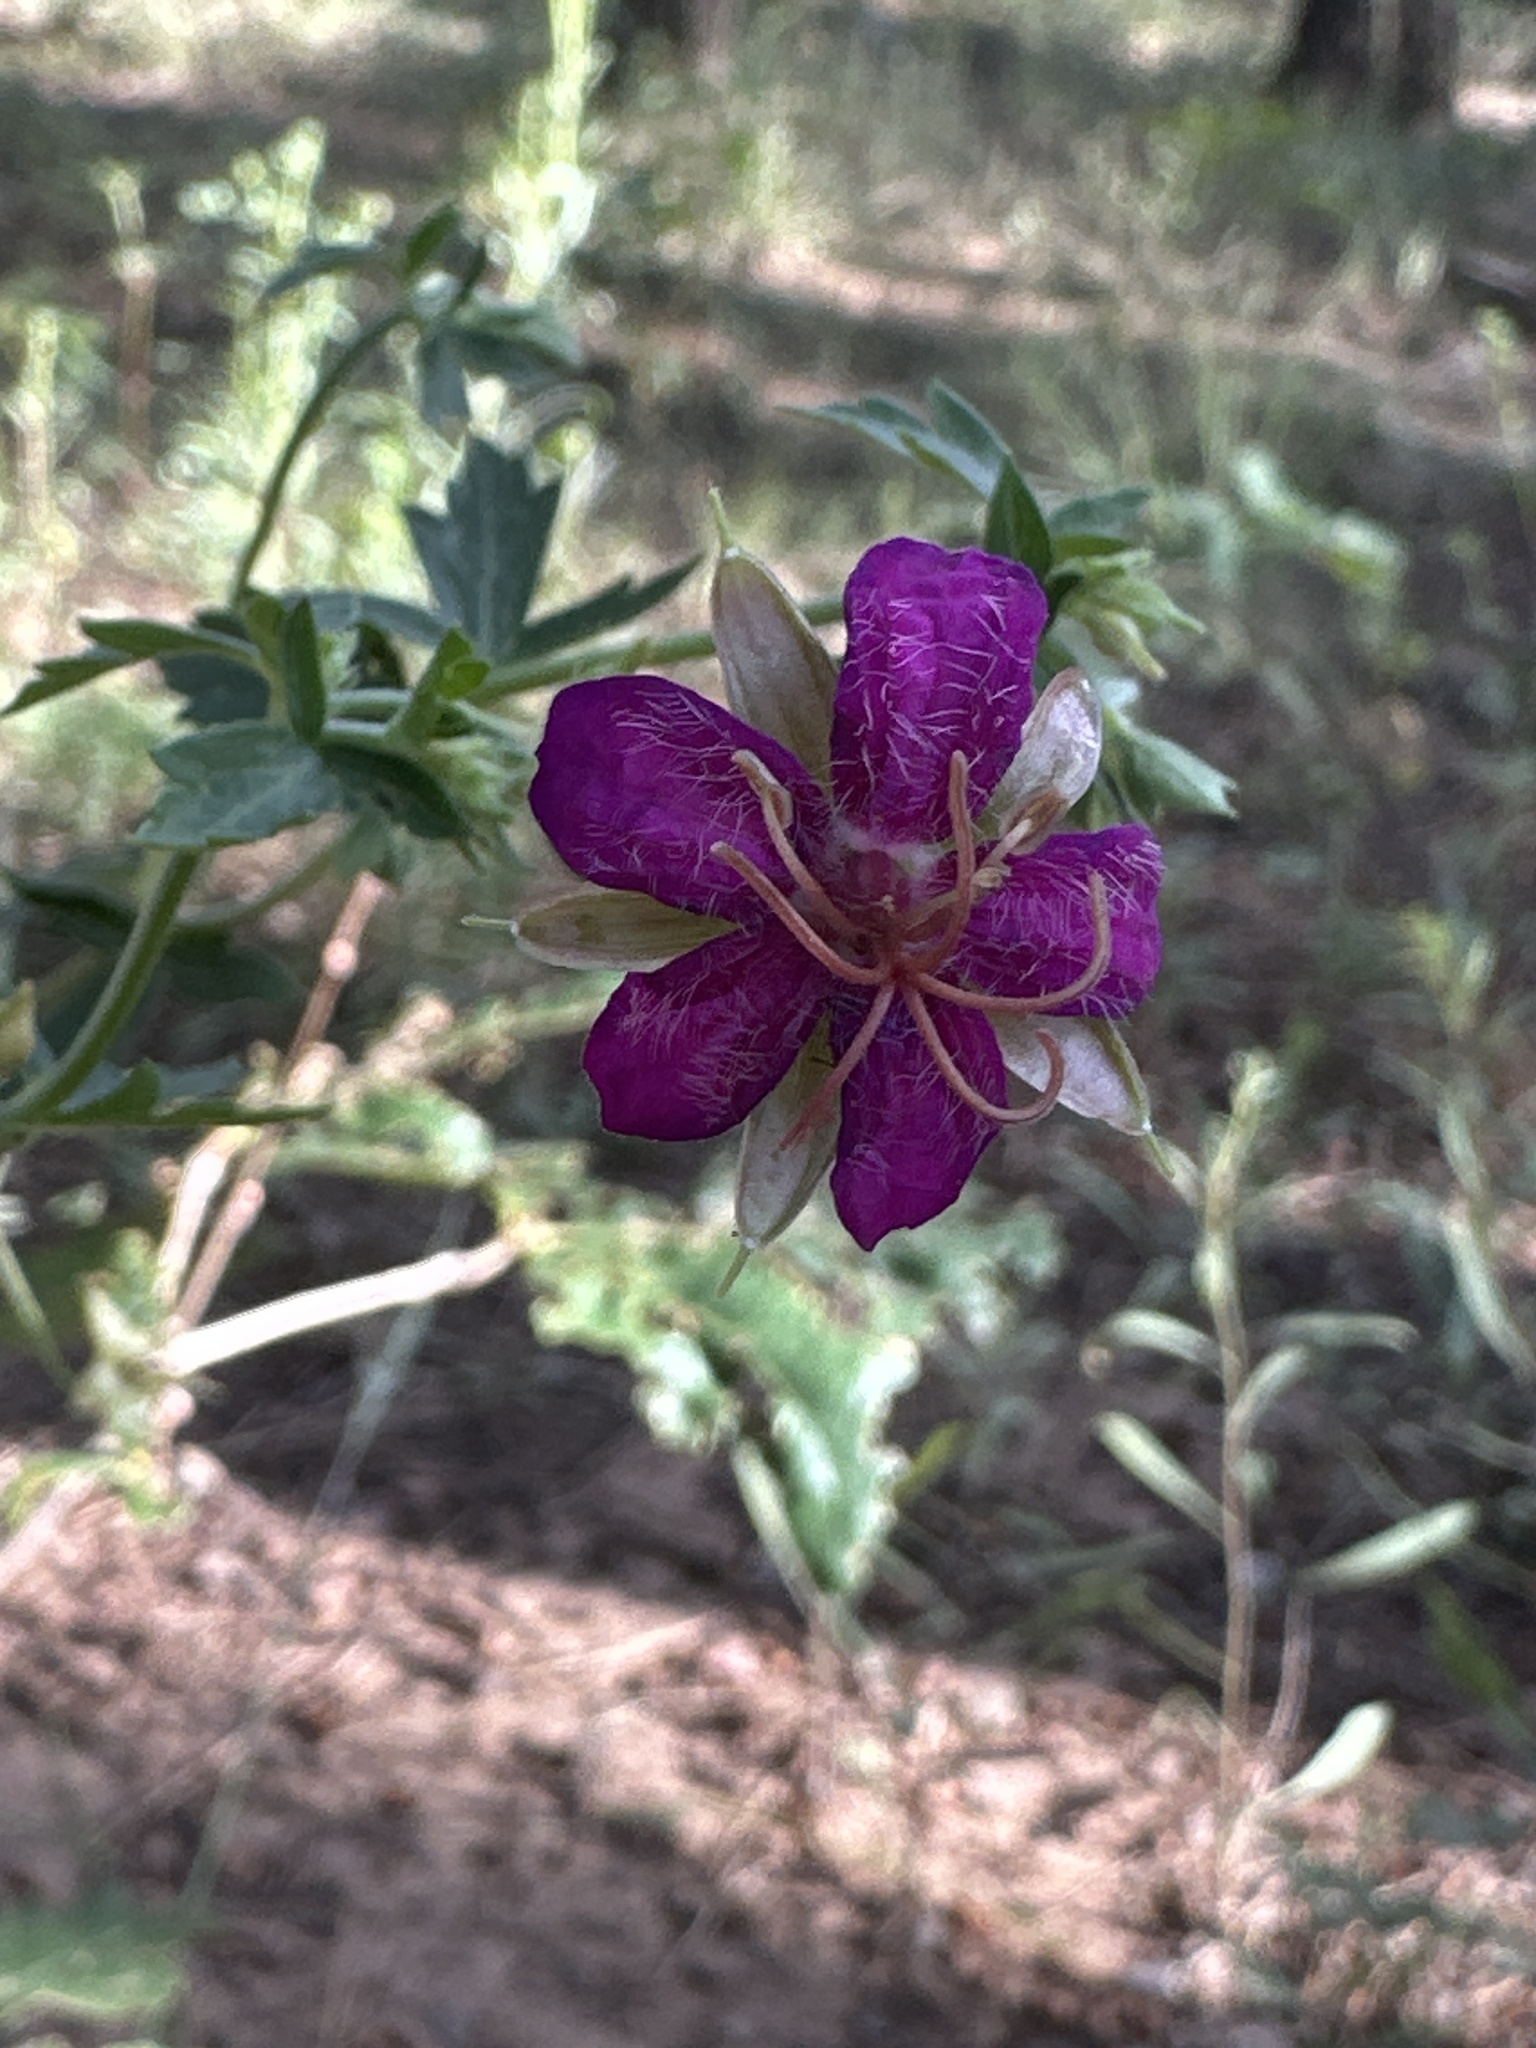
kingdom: Plantae
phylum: Tracheophyta
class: Magnoliopsida
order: Geraniales
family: Geraniaceae
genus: Geranium
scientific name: Geranium caespitosum
